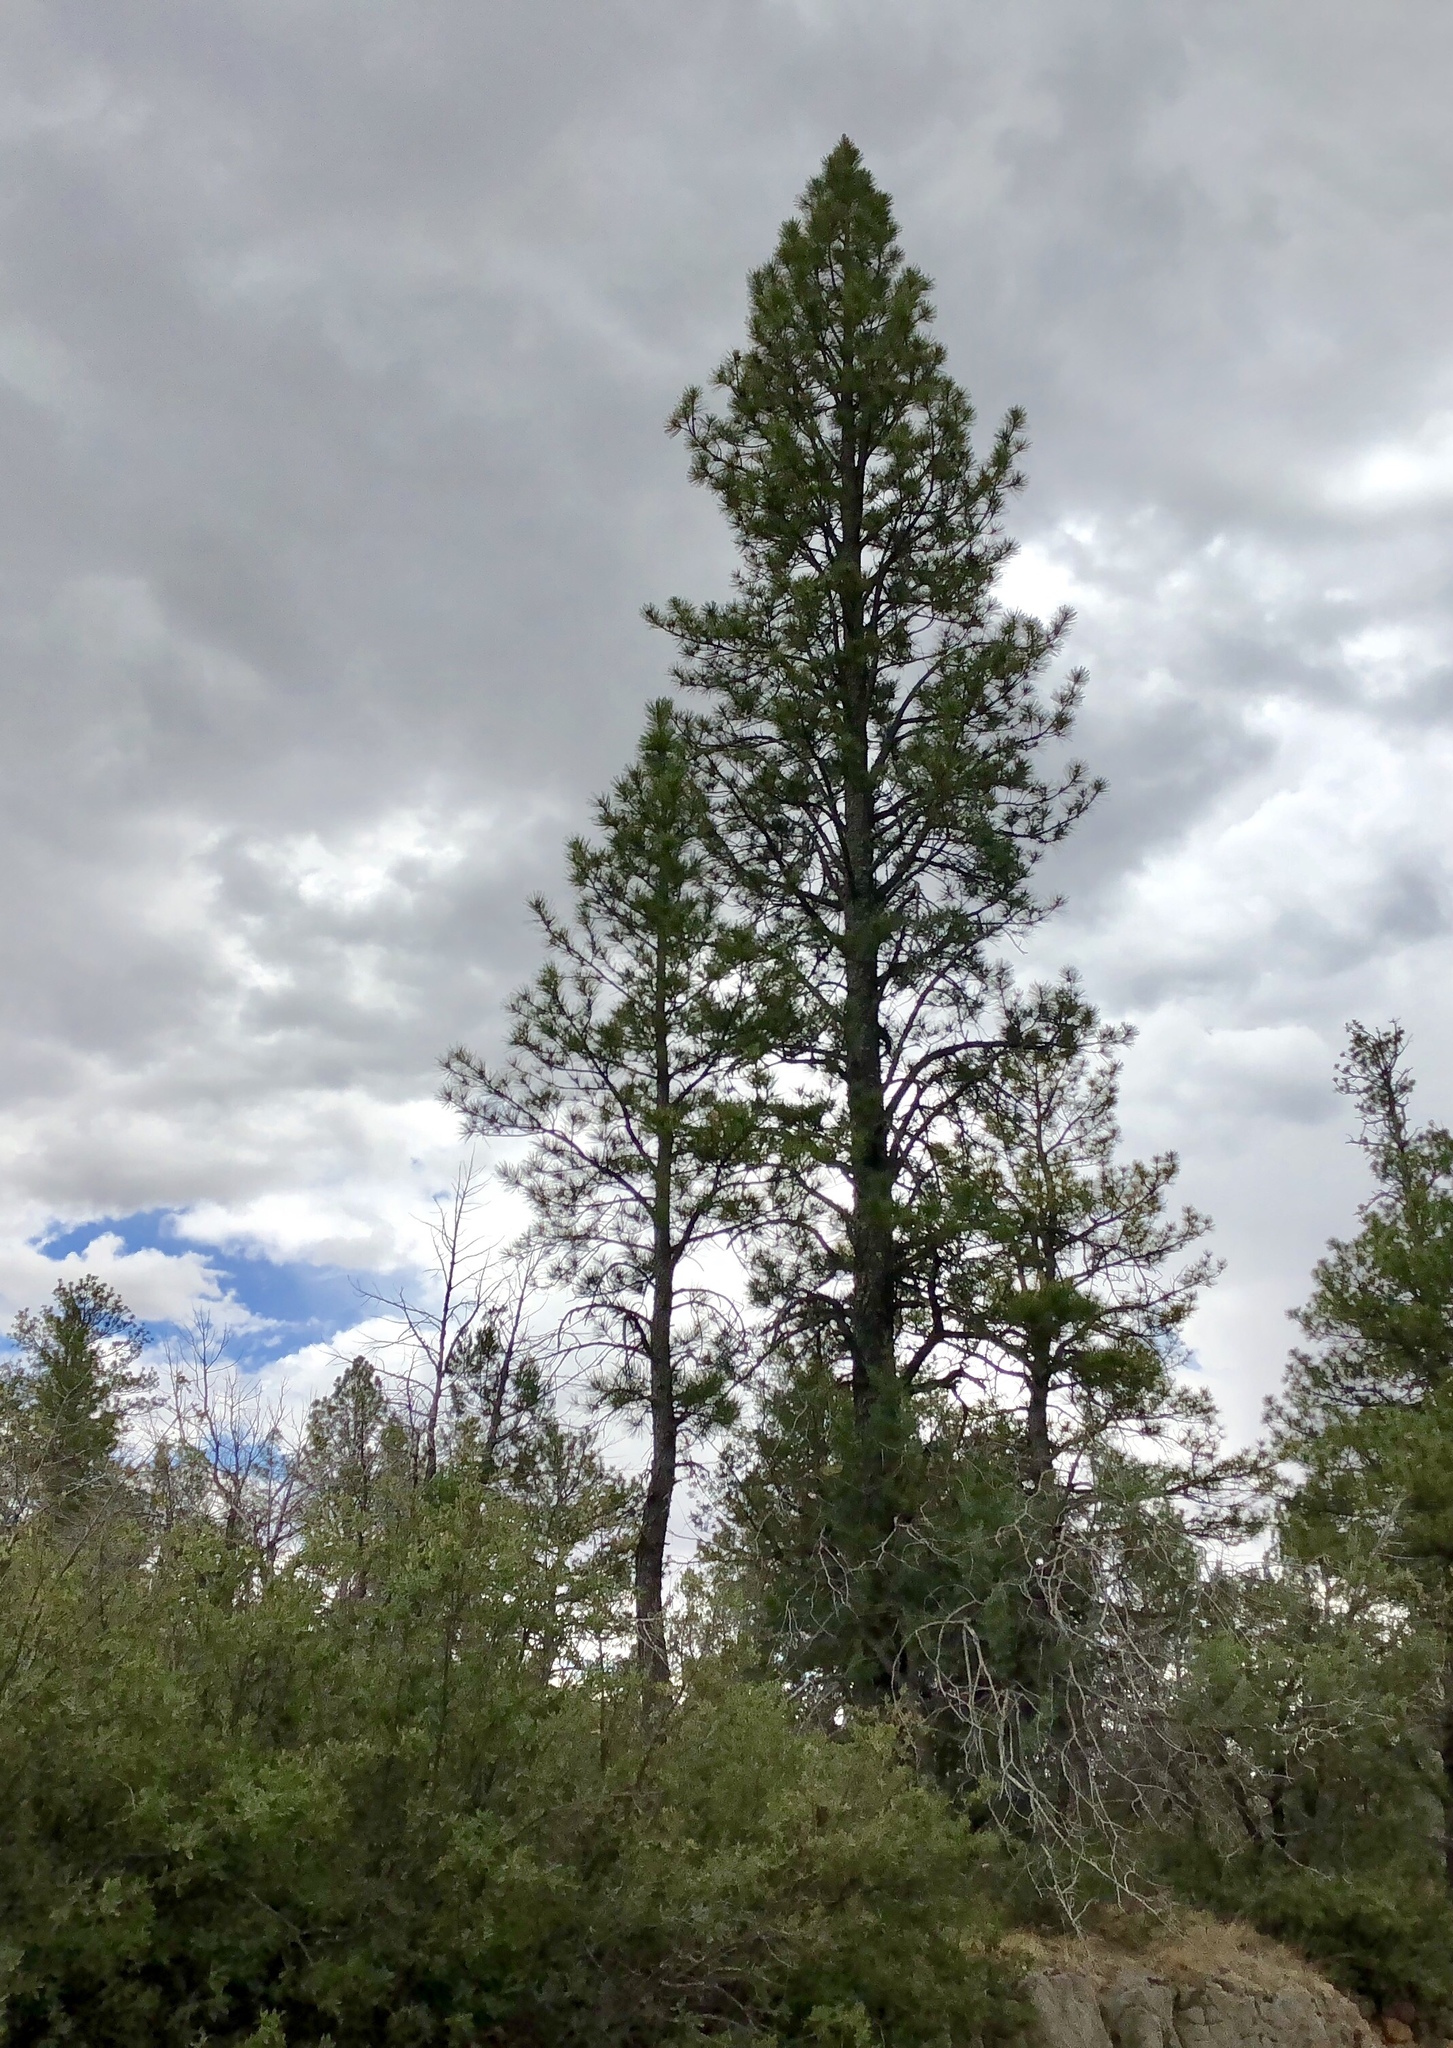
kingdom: Plantae
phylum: Tracheophyta
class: Pinopsida
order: Pinales
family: Pinaceae
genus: Pinus
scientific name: Pinus ponderosa
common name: Western yellow-pine
